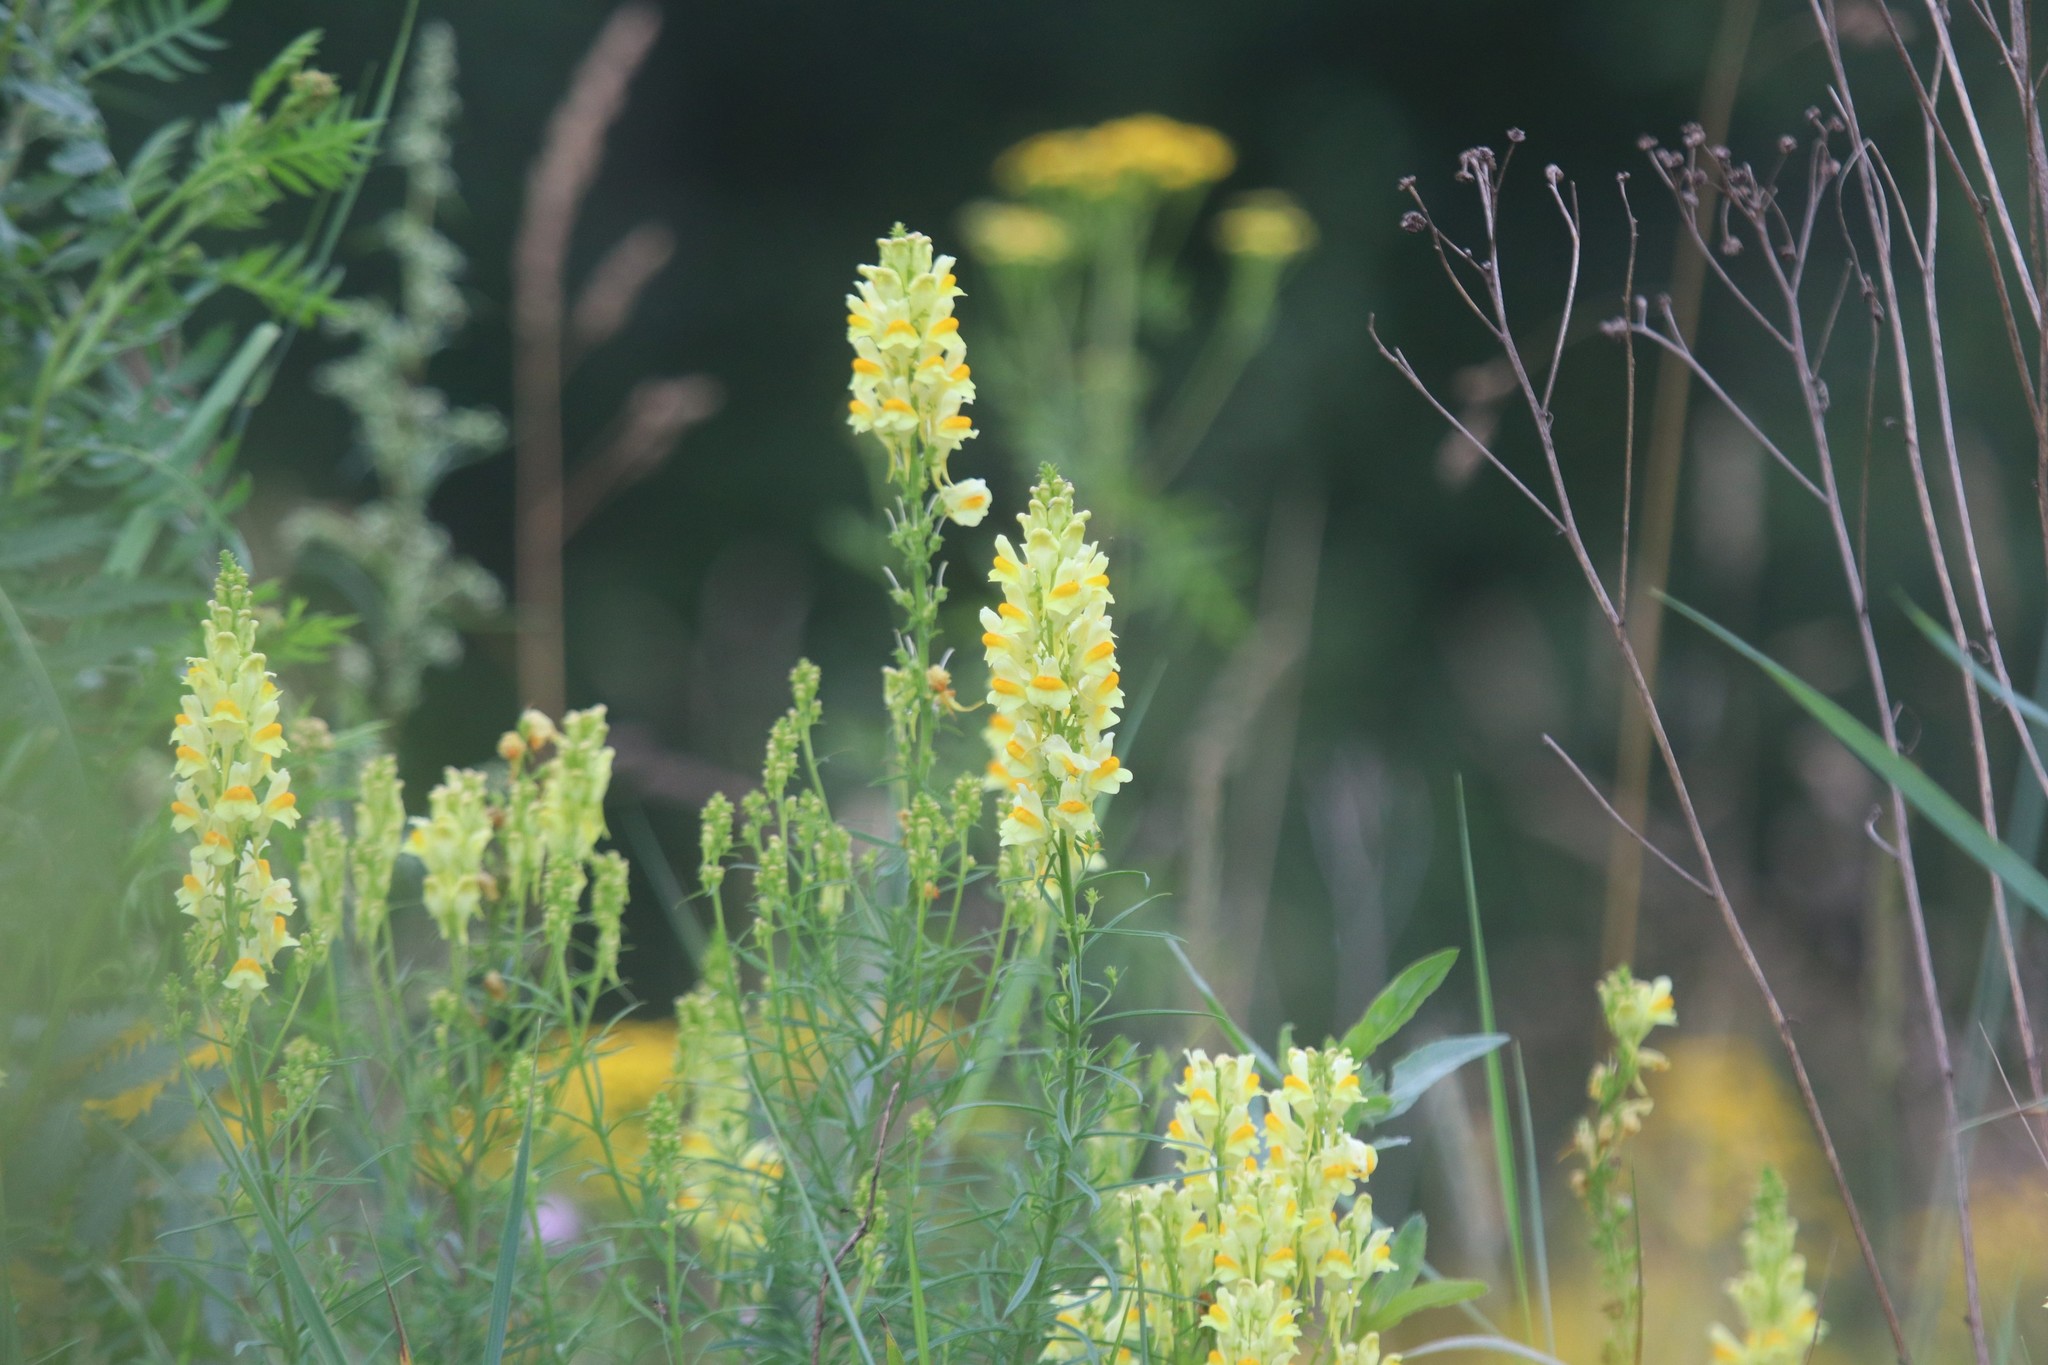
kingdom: Plantae
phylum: Tracheophyta
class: Magnoliopsida
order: Lamiales
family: Plantaginaceae
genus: Linaria
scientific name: Linaria vulgaris
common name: Butter and eggs
